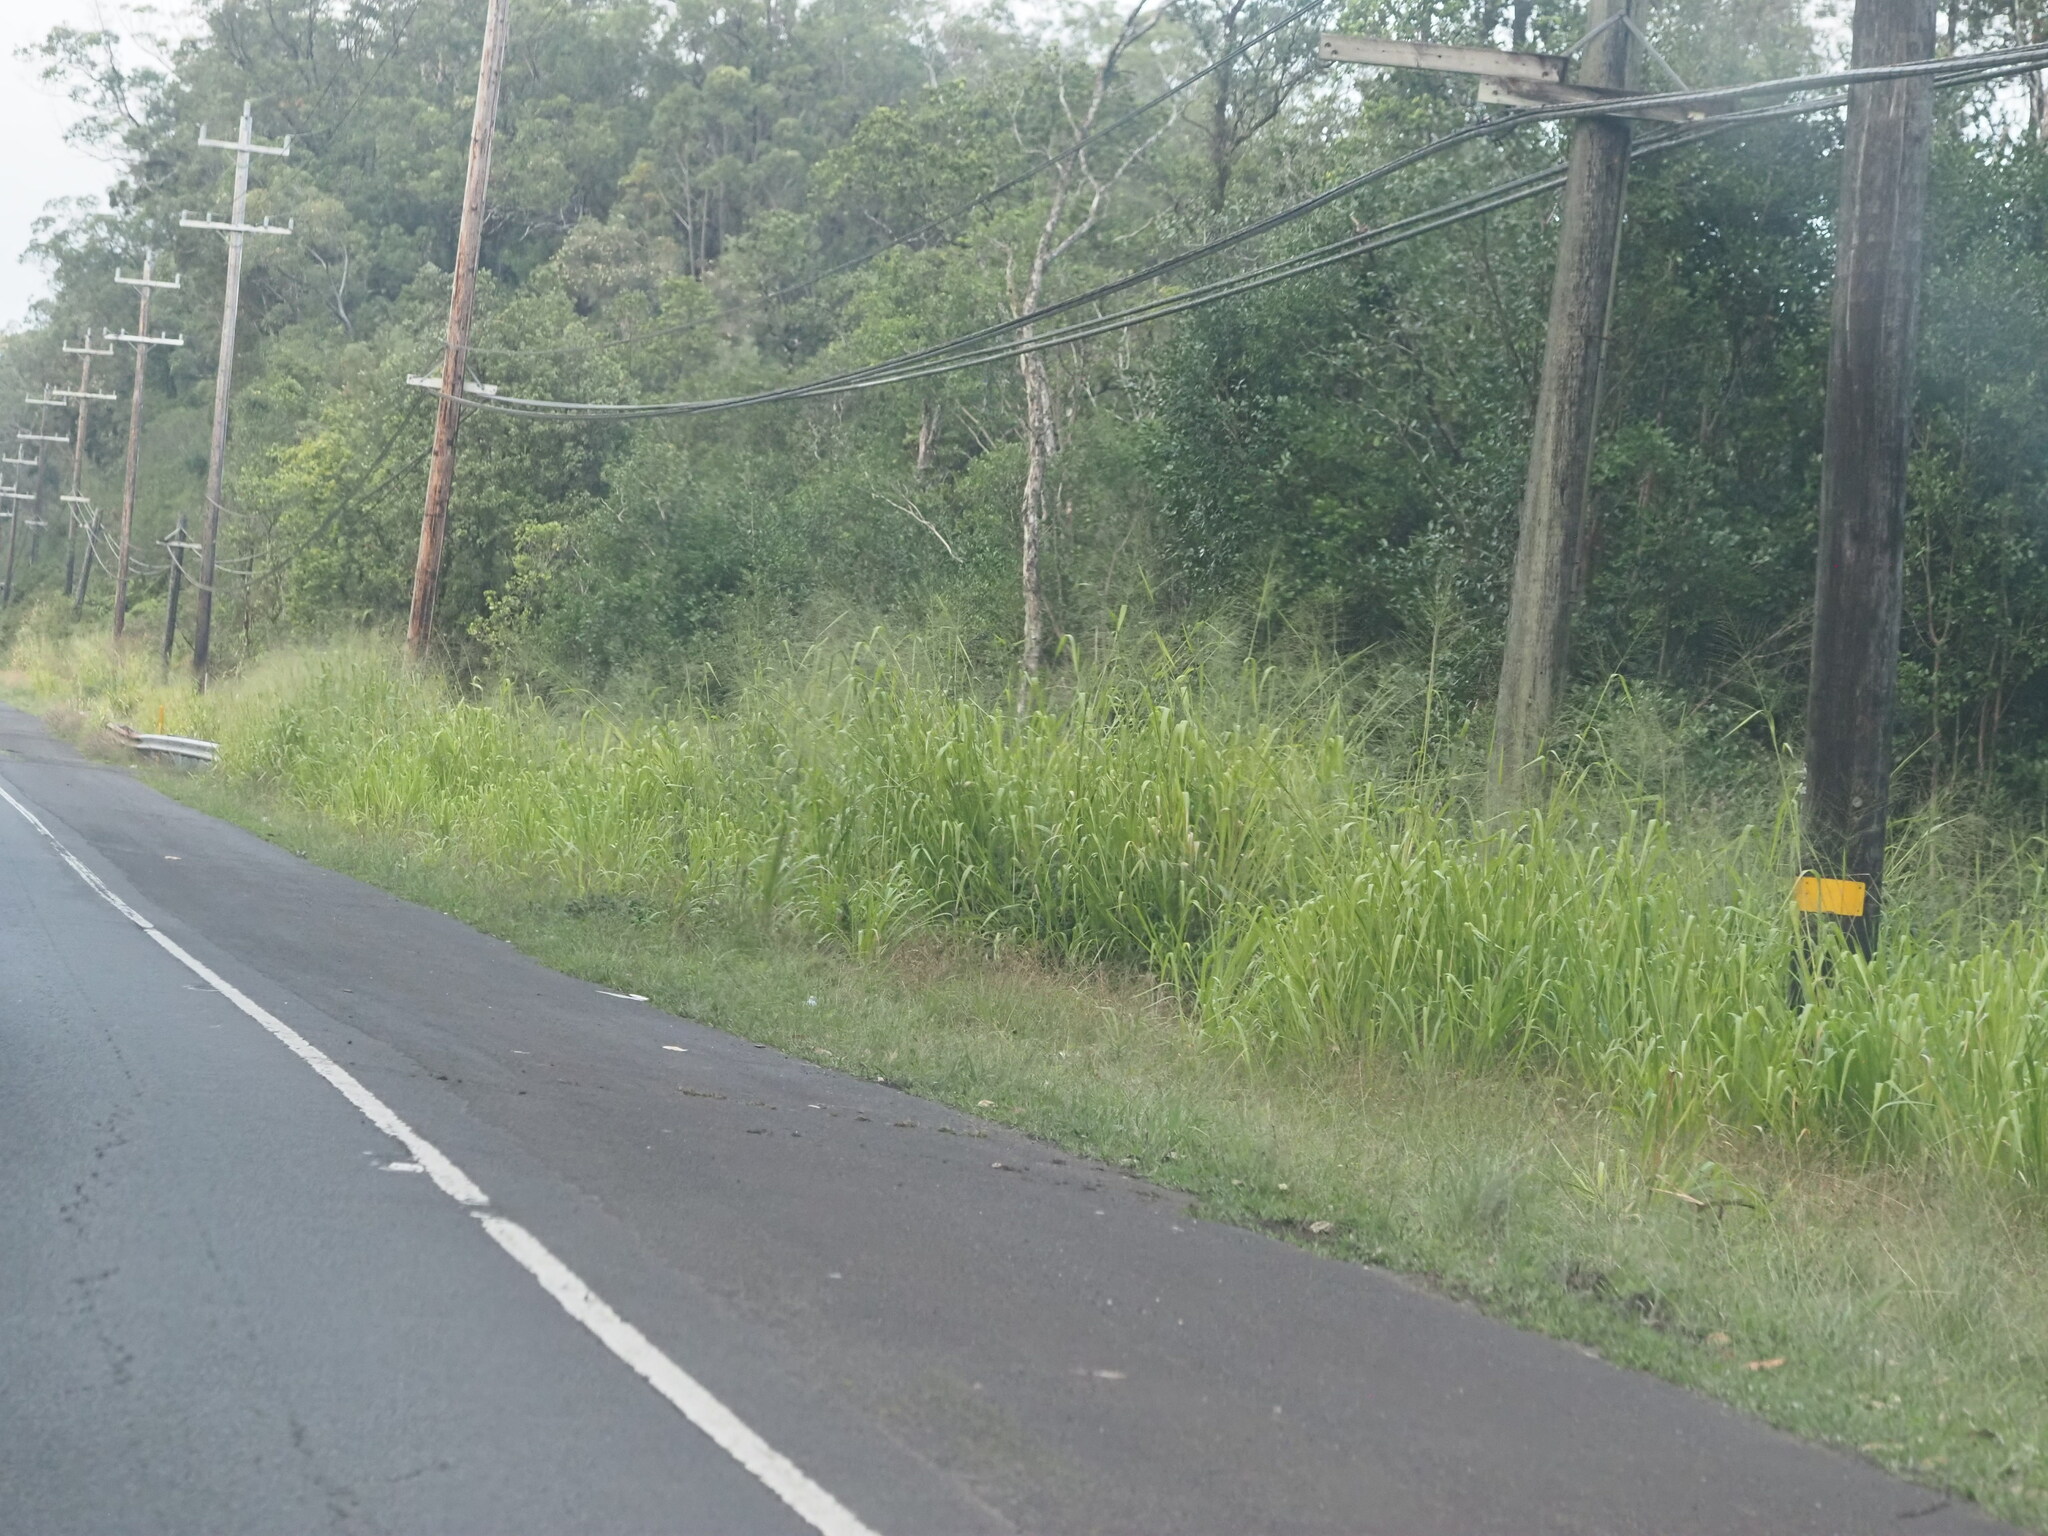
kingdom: Plantae
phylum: Tracheophyta
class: Liliopsida
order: Poales
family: Poaceae
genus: Megathyrsus
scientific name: Megathyrsus maximus
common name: Guineagrass
